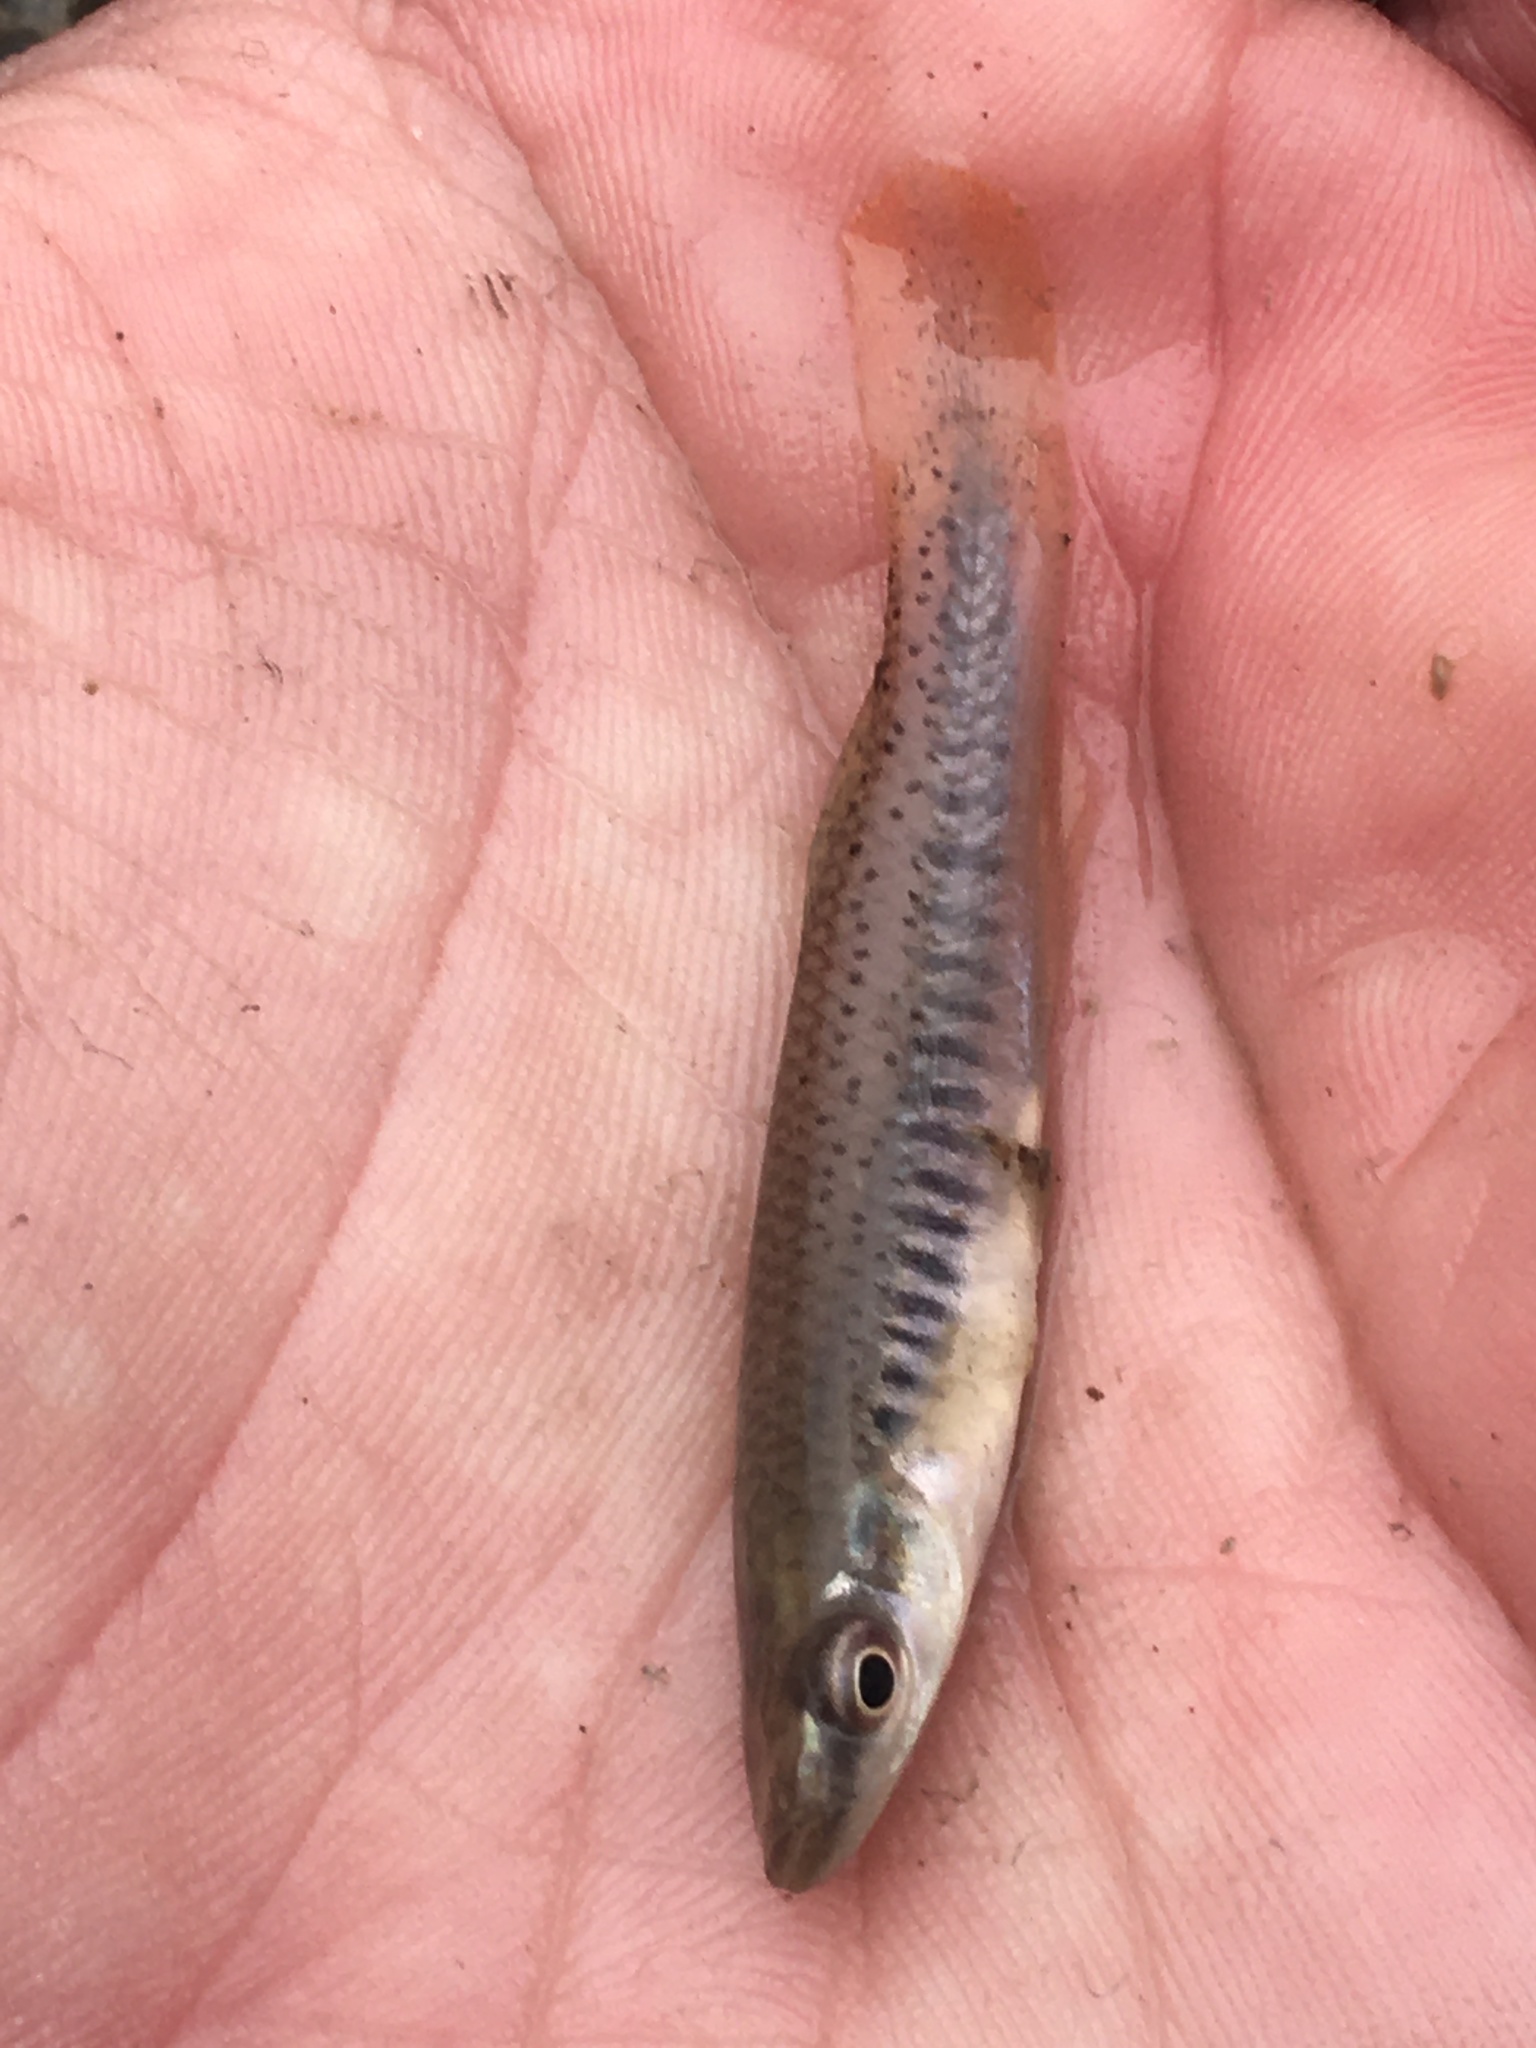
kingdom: Animalia
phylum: Chordata
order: Cyprinodontiformes
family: Fundulidae
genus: Fundulus
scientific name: Fundulus olivaceus
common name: Blackspotted topminnow
